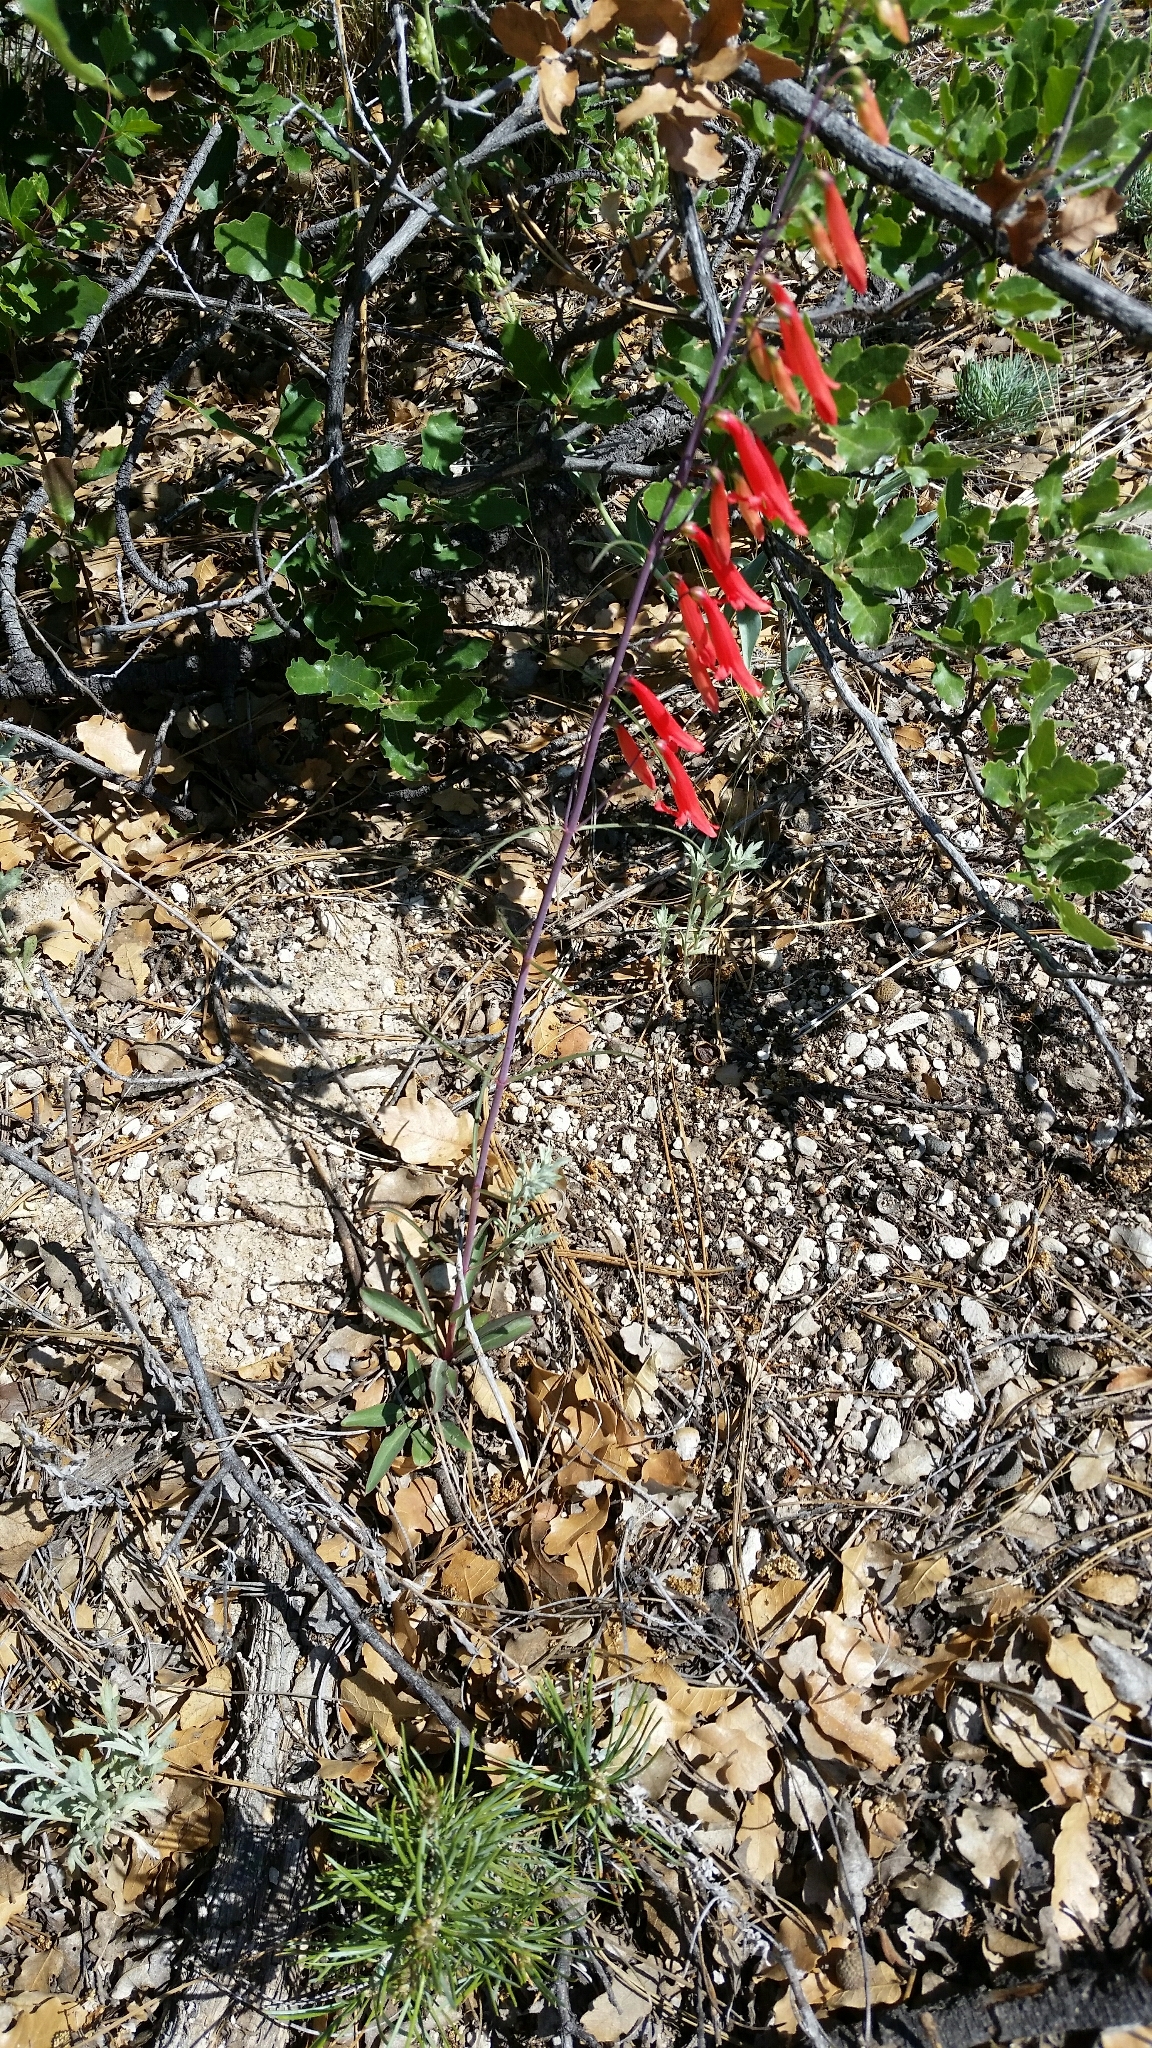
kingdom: Plantae
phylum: Tracheophyta
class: Magnoliopsida
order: Lamiales
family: Plantaginaceae
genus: Penstemon
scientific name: Penstemon barbatus
